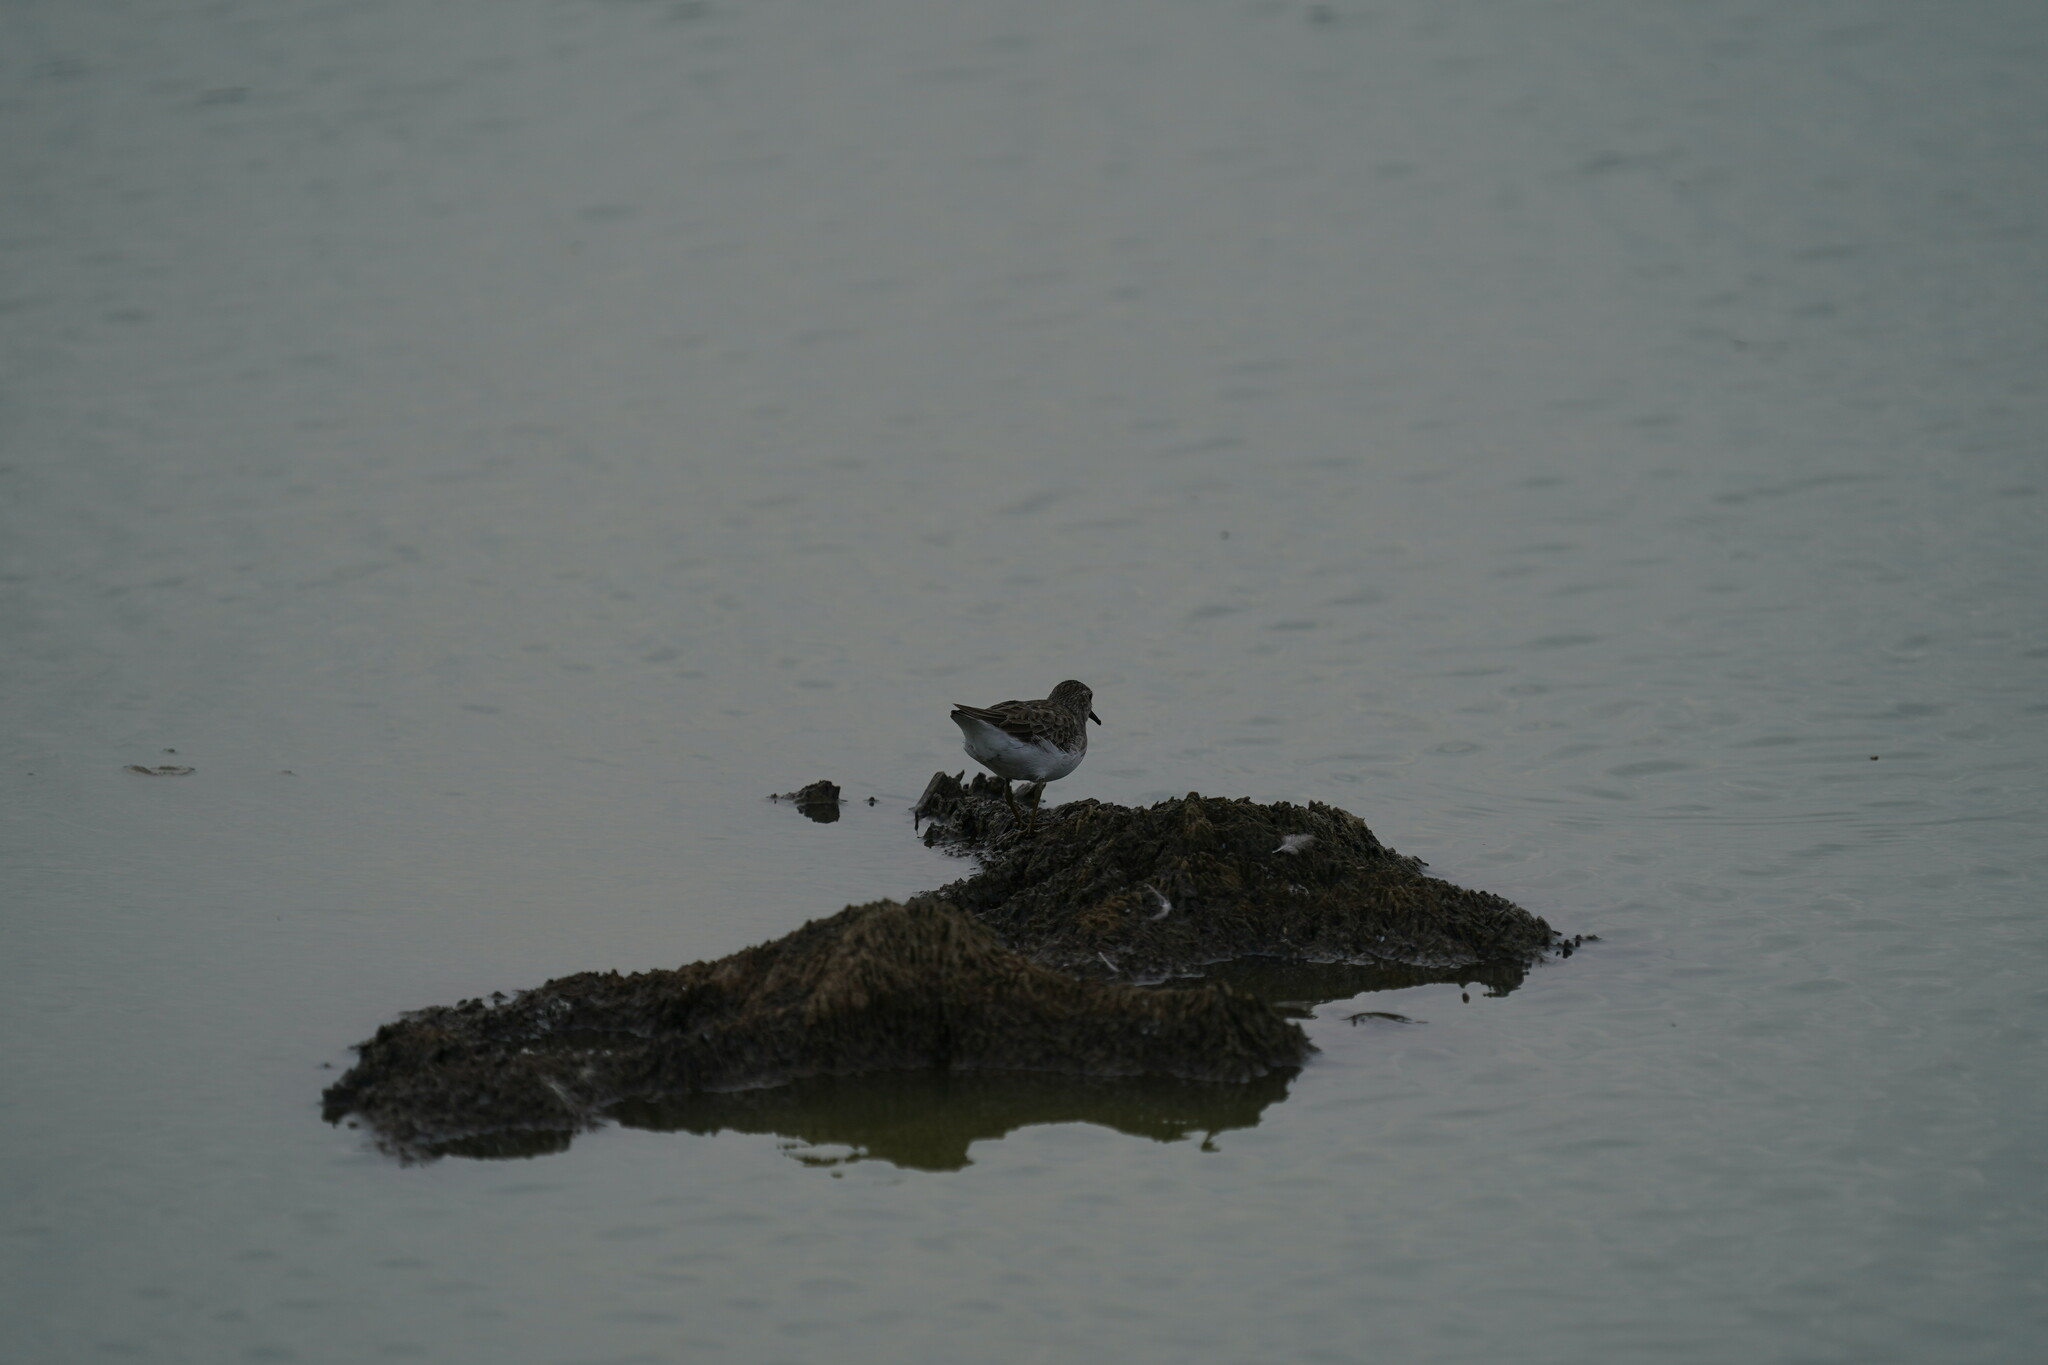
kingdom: Animalia
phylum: Chordata
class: Aves
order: Charadriiformes
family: Scolopacidae
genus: Calidris
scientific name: Calidris minutilla
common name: Least sandpiper
